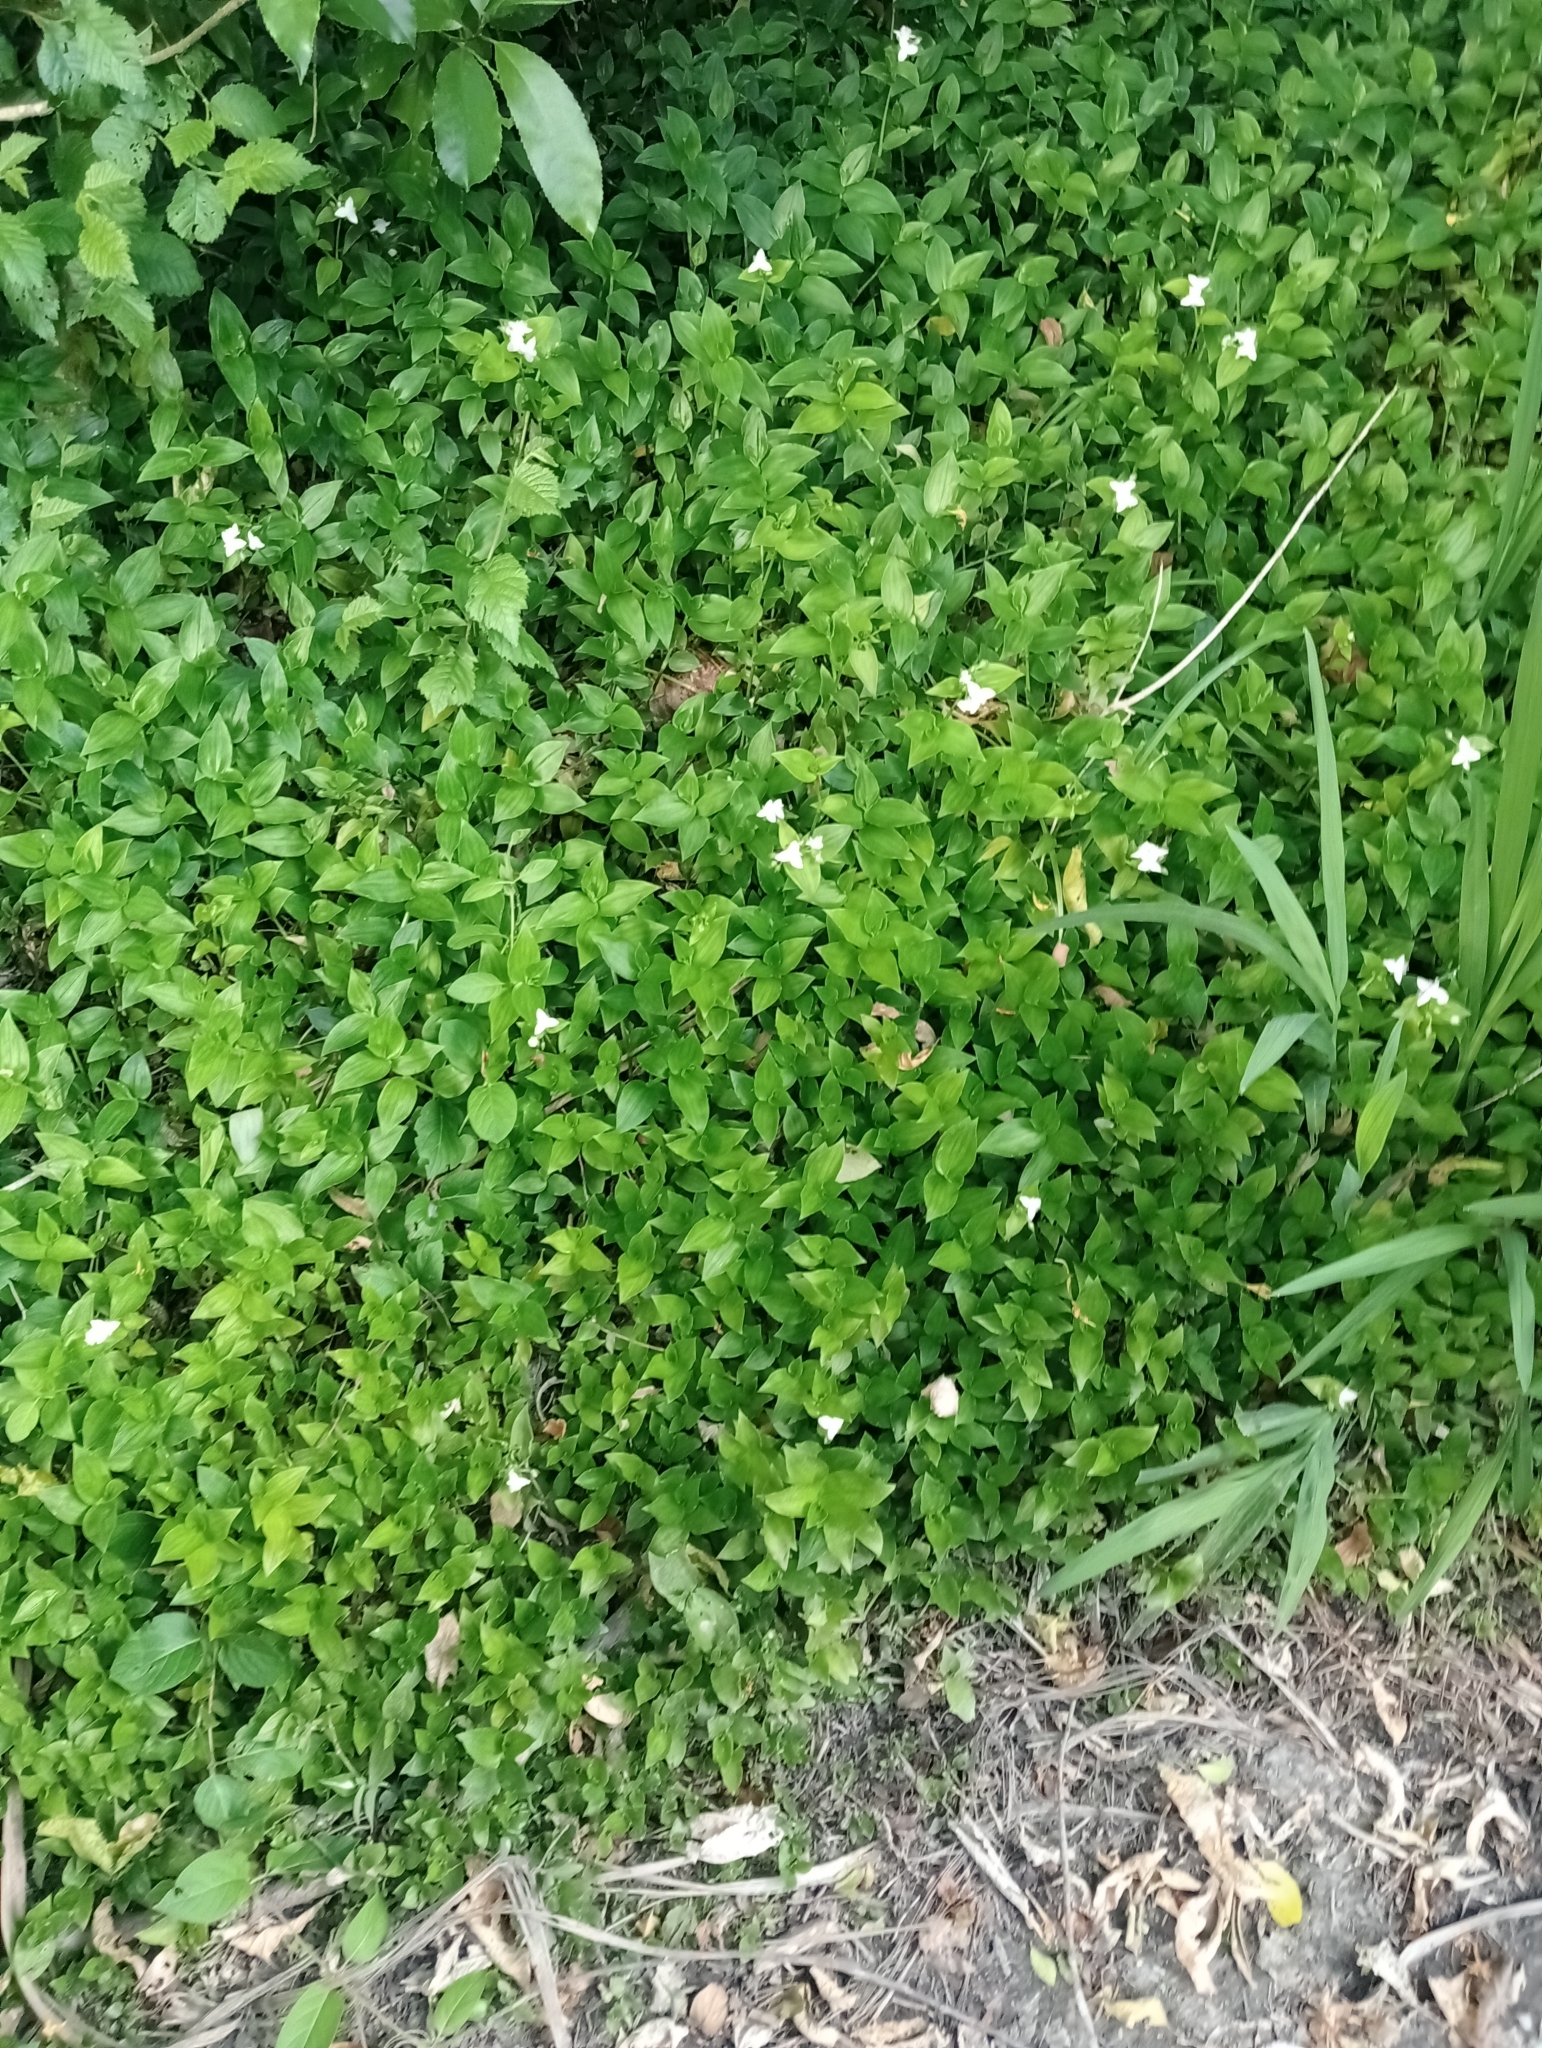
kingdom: Plantae
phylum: Tracheophyta
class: Liliopsida
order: Commelinales
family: Commelinaceae
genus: Tradescantia
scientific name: Tradescantia fluminensis
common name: Wandering-jew
